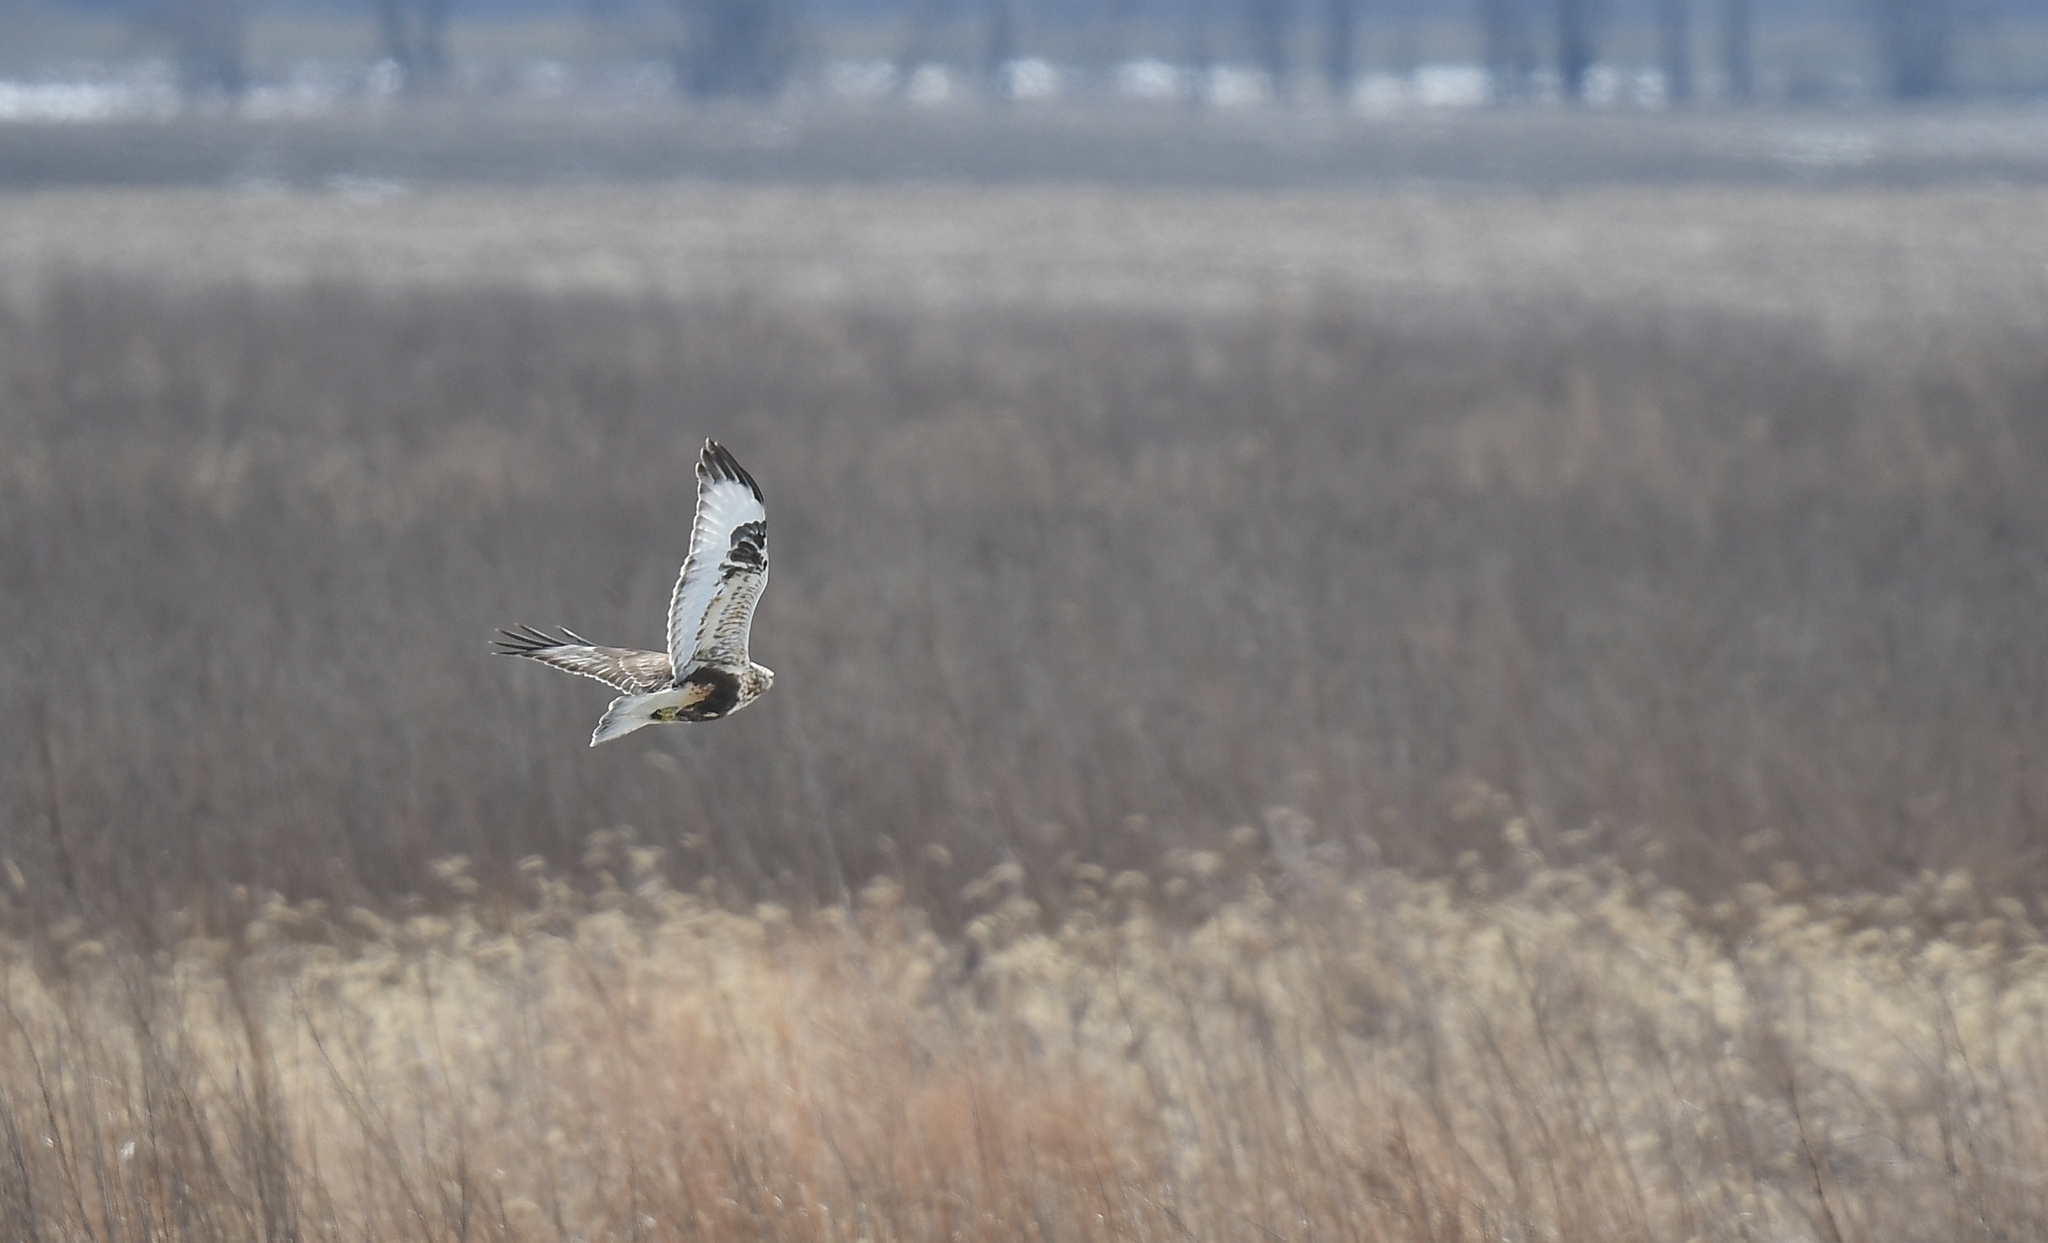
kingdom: Animalia
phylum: Chordata
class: Aves
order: Accipitriformes
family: Accipitridae
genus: Buteo
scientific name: Buteo lagopus
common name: Rough-legged buzzard
